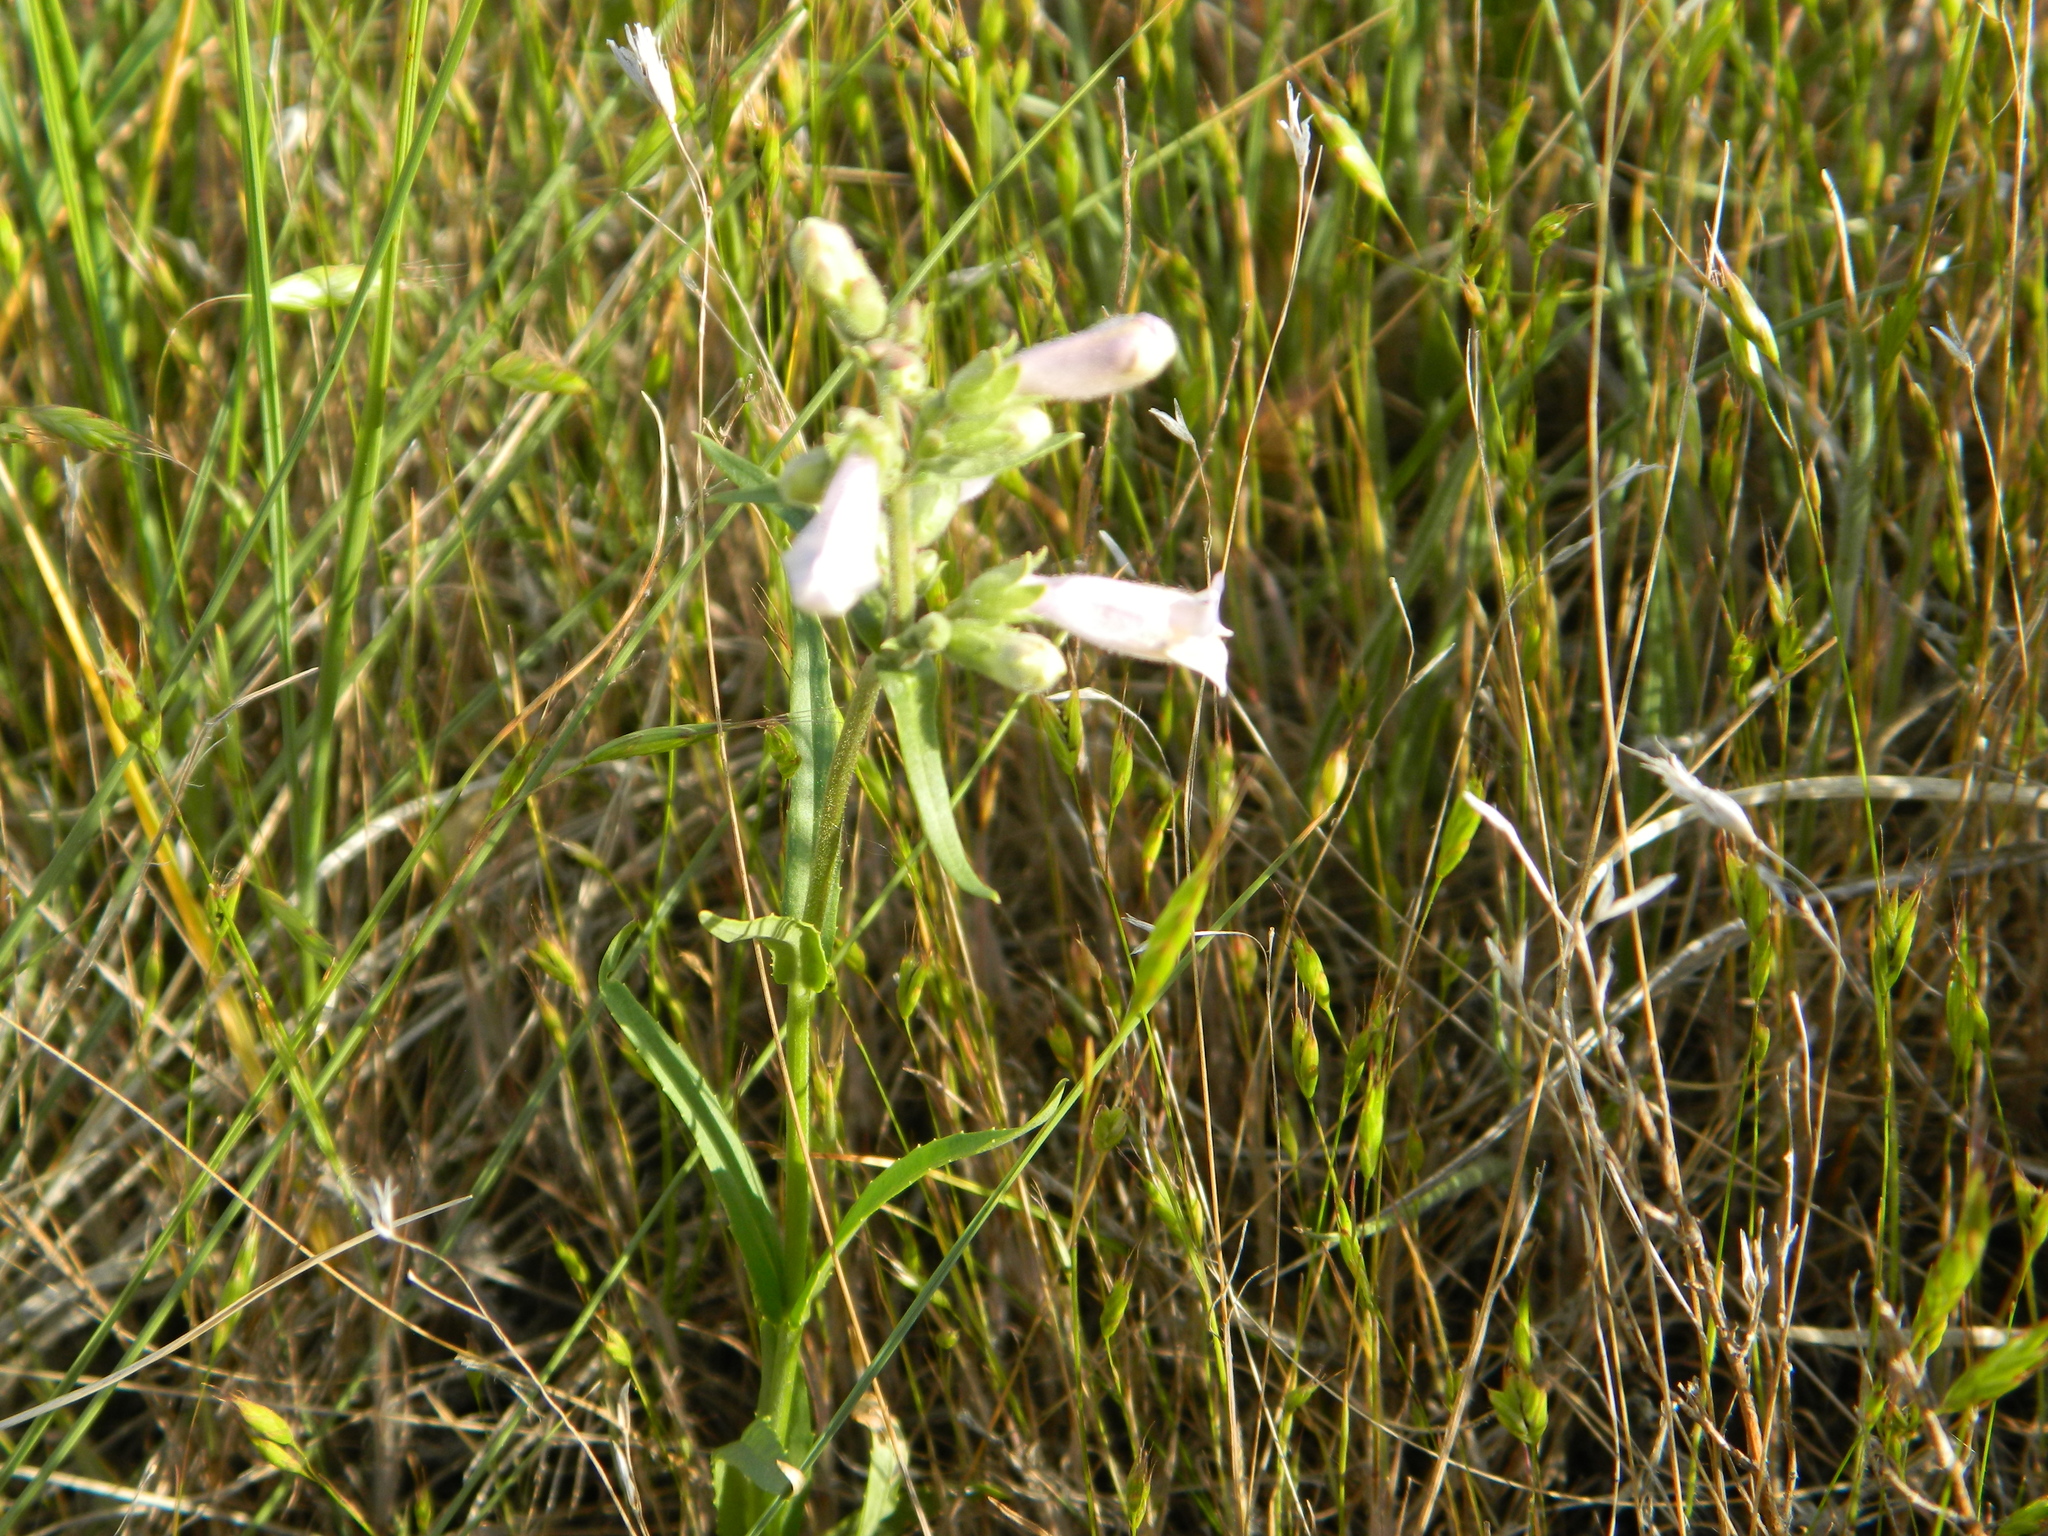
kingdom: Plantae
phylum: Tracheophyta
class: Magnoliopsida
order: Lamiales
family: Plantaginaceae
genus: Penstemon
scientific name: Penstemon gracilis
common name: Slender beardtongue
